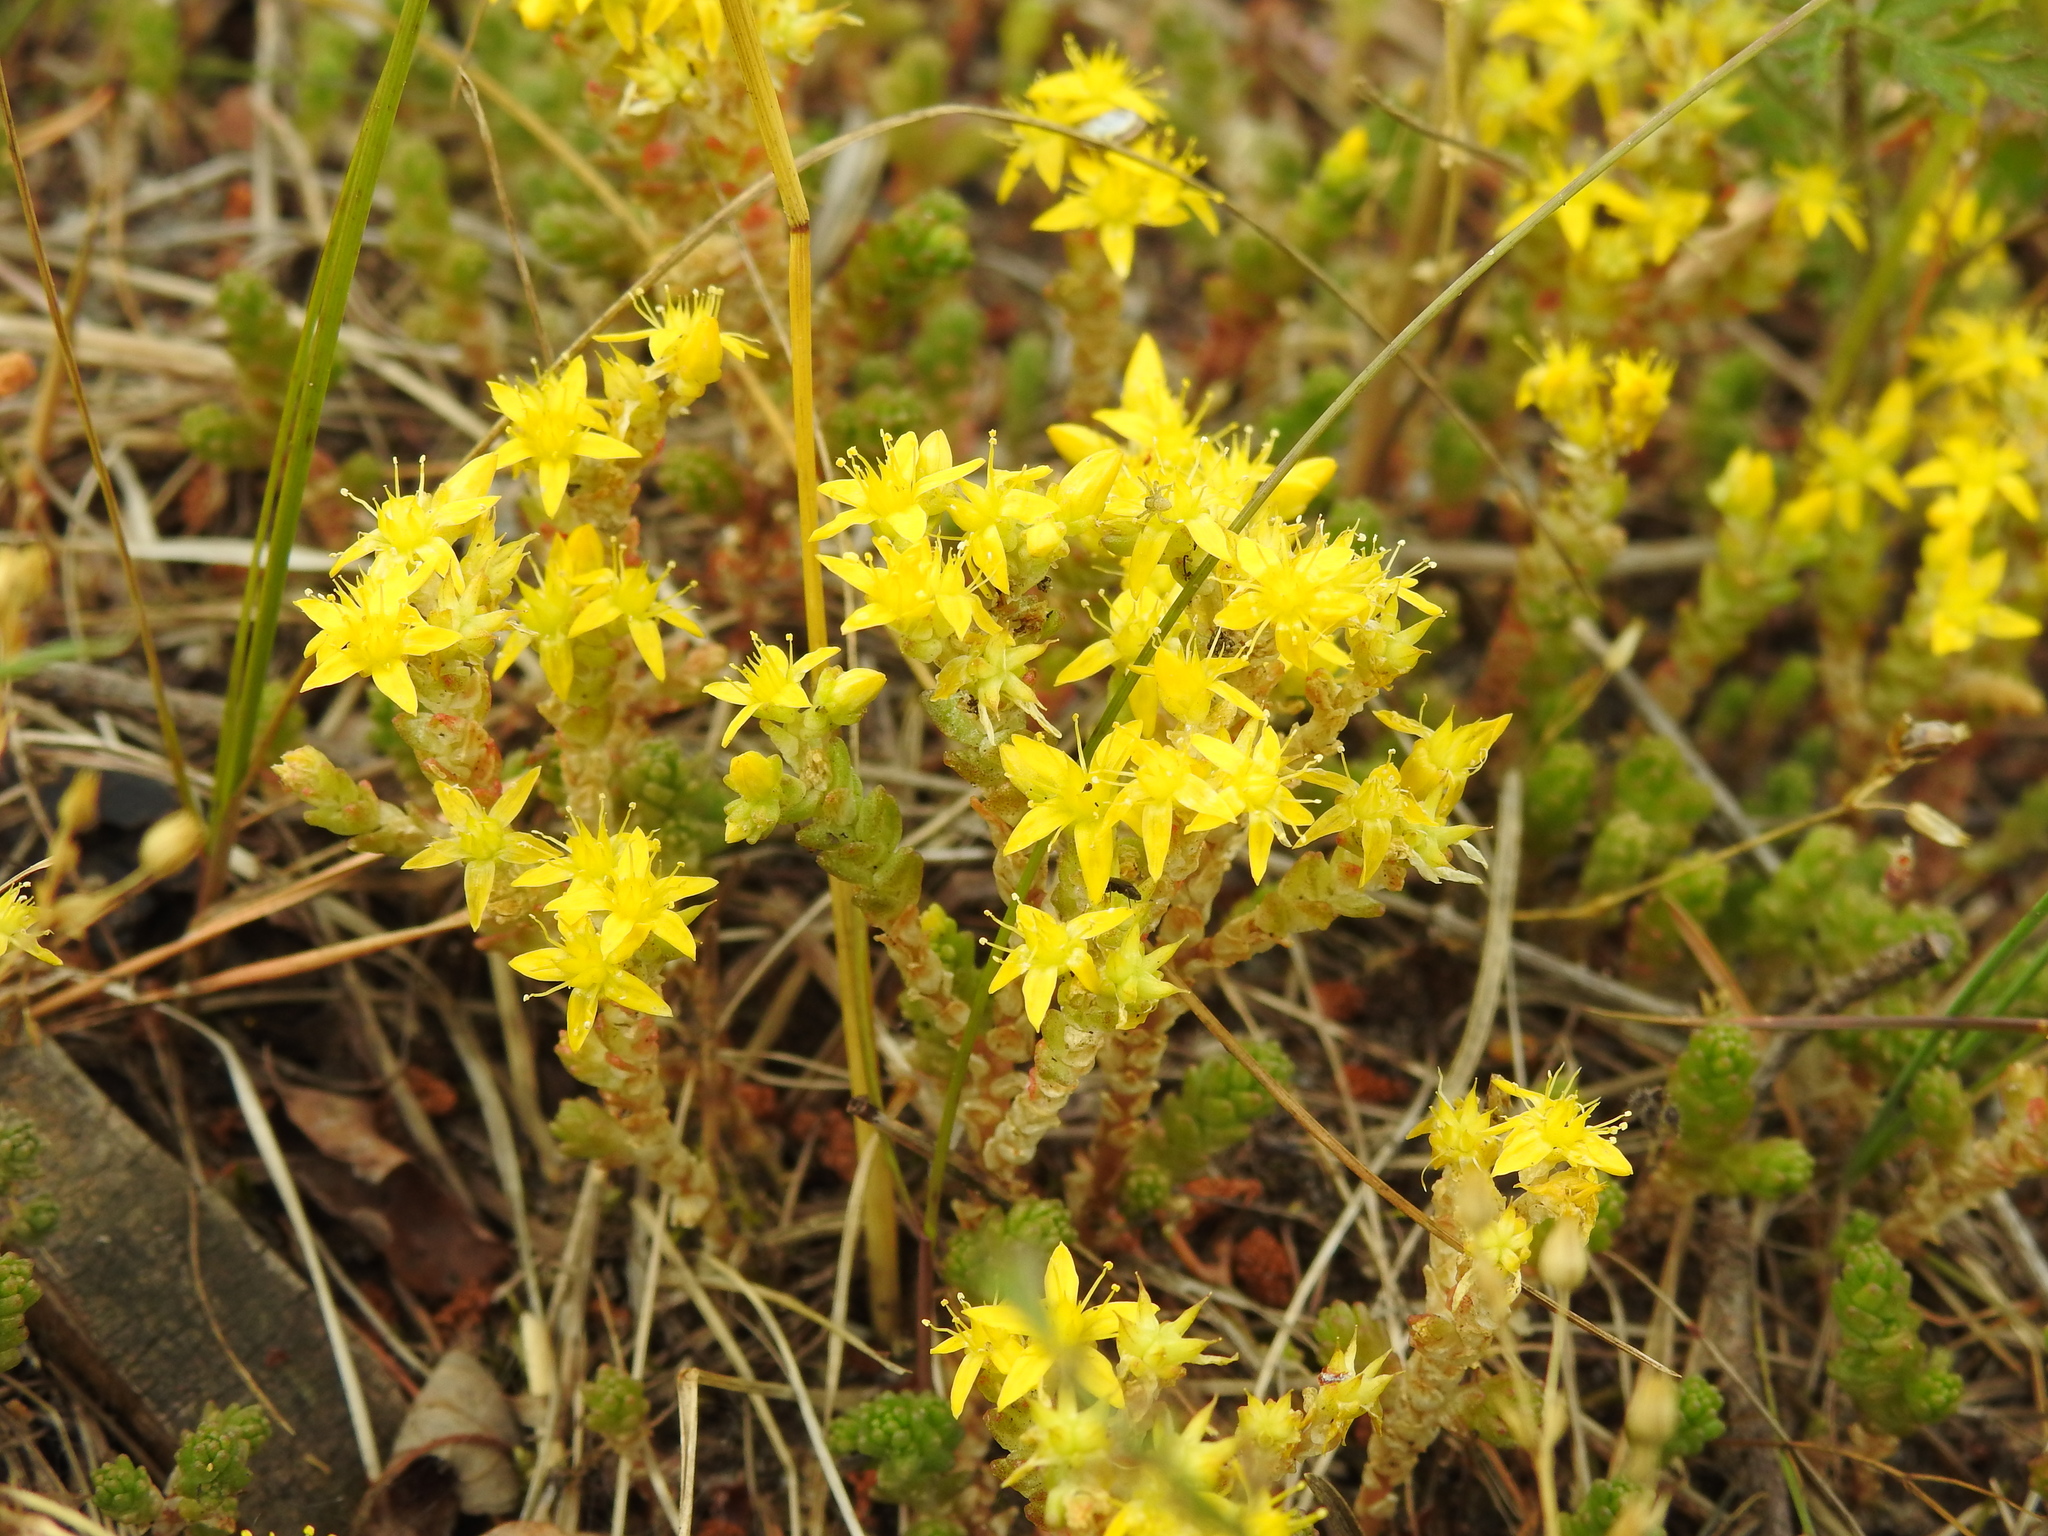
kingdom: Plantae
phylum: Tracheophyta
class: Magnoliopsida
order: Saxifragales
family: Crassulaceae
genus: Sedum
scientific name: Sedum acre
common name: Biting stonecrop
